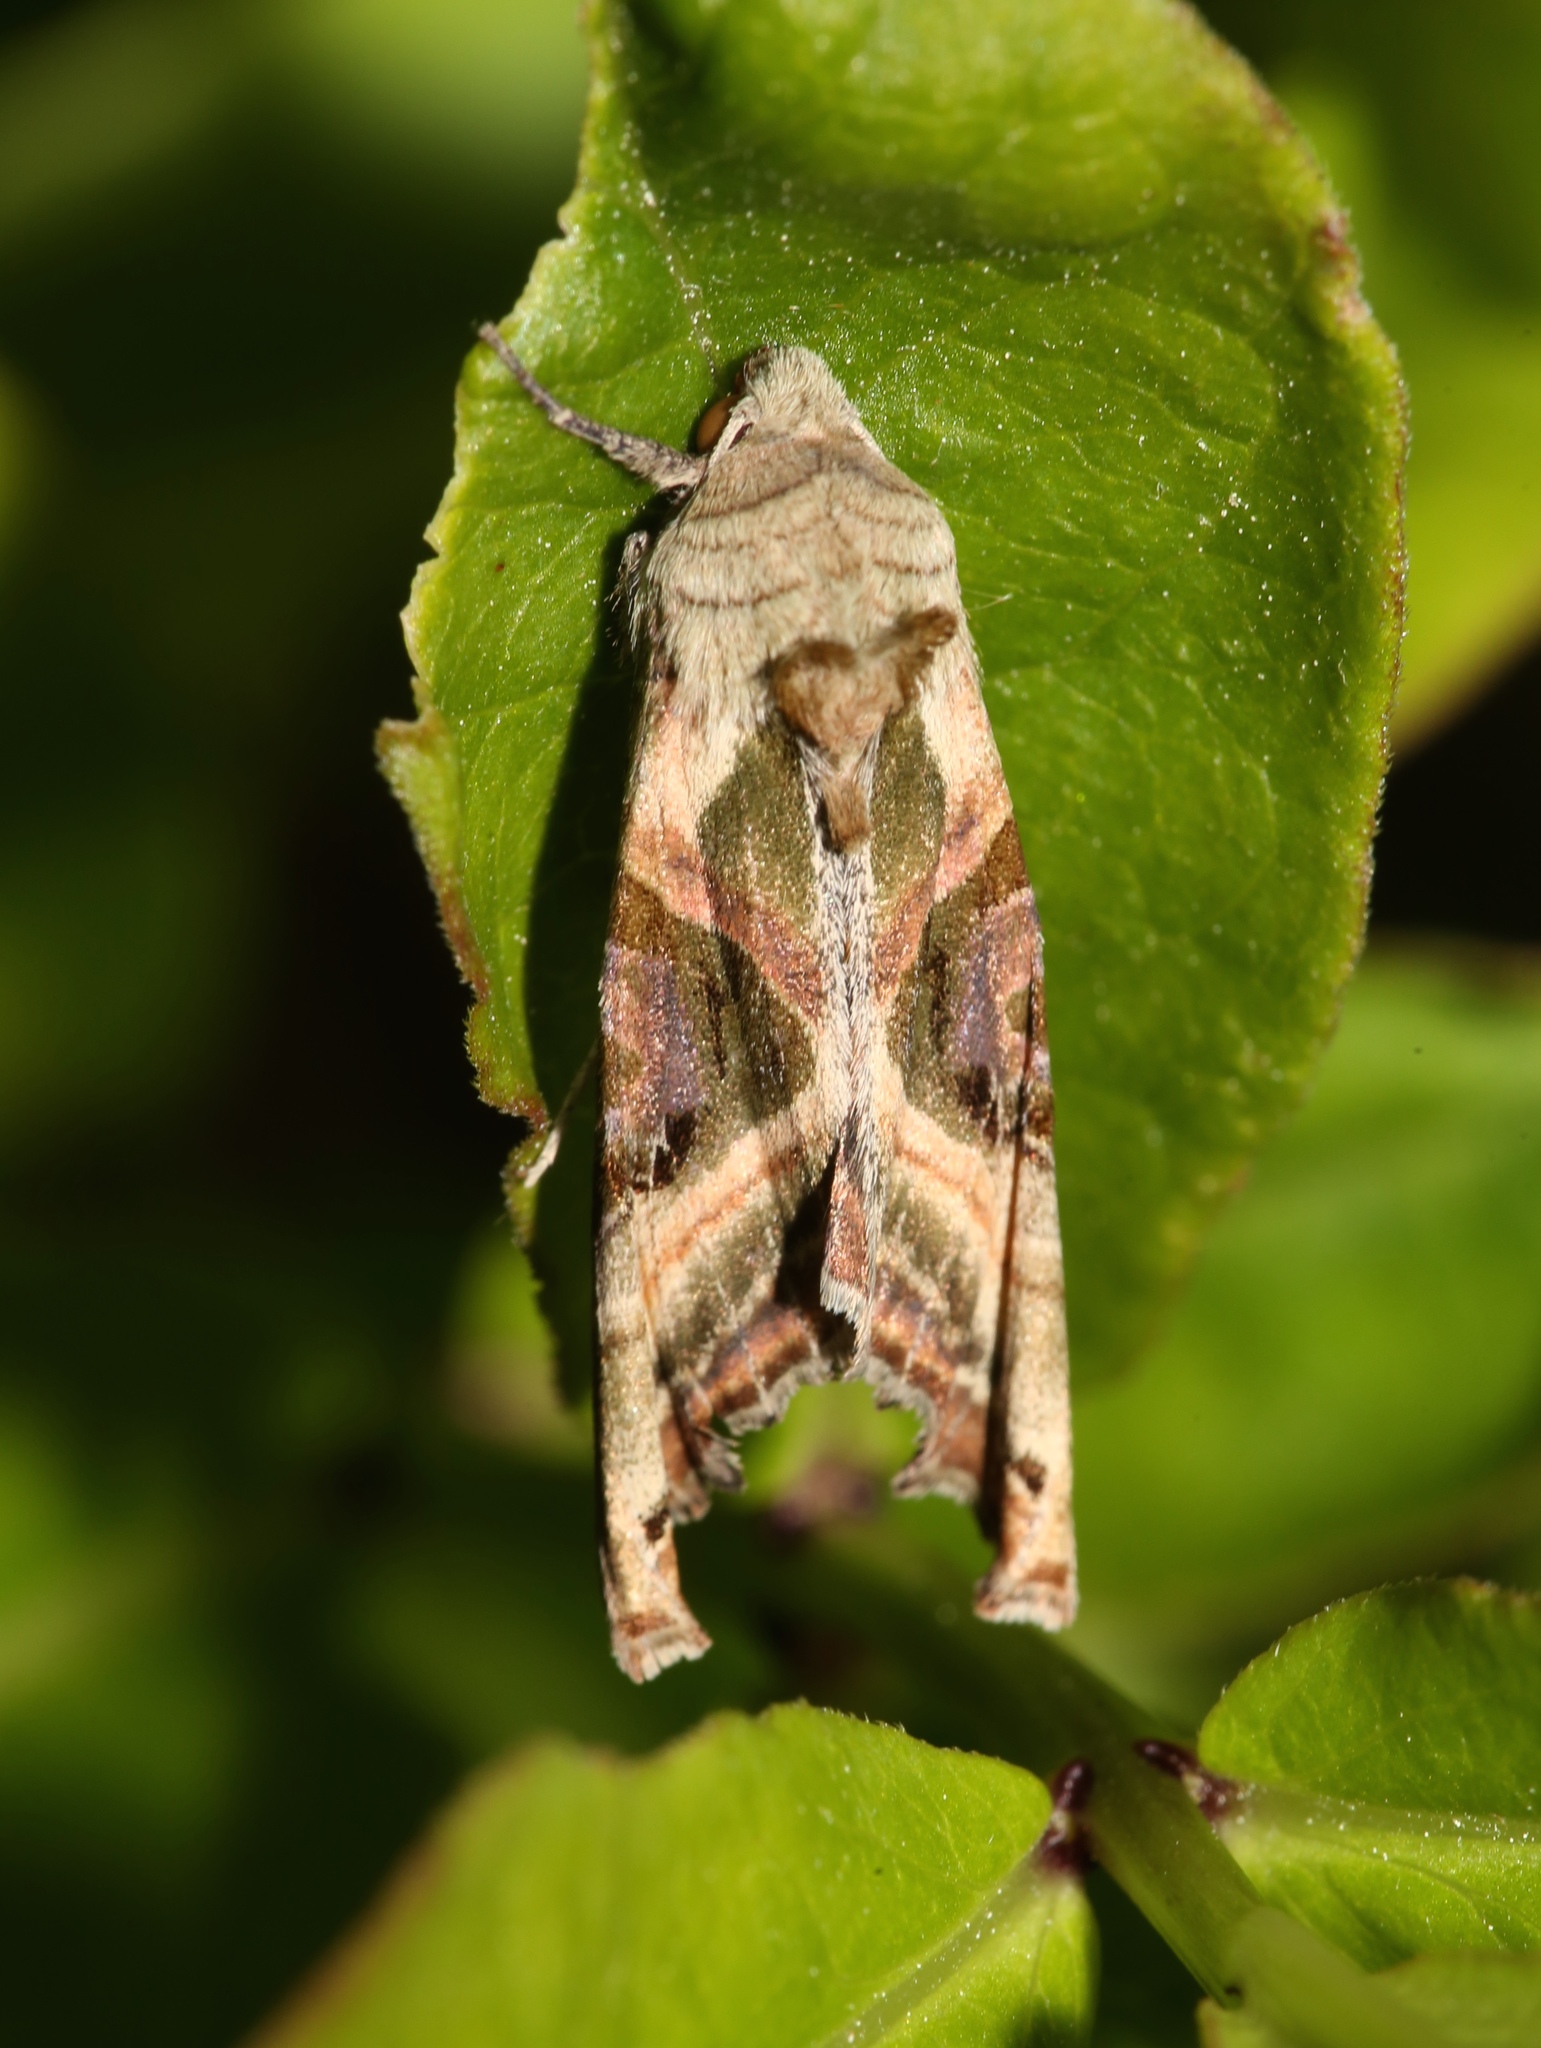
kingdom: Animalia
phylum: Arthropoda
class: Insecta
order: Lepidoptera
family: Noctuidae
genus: Phlogophora
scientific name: Phlogophora iris
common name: Olive angle shades
